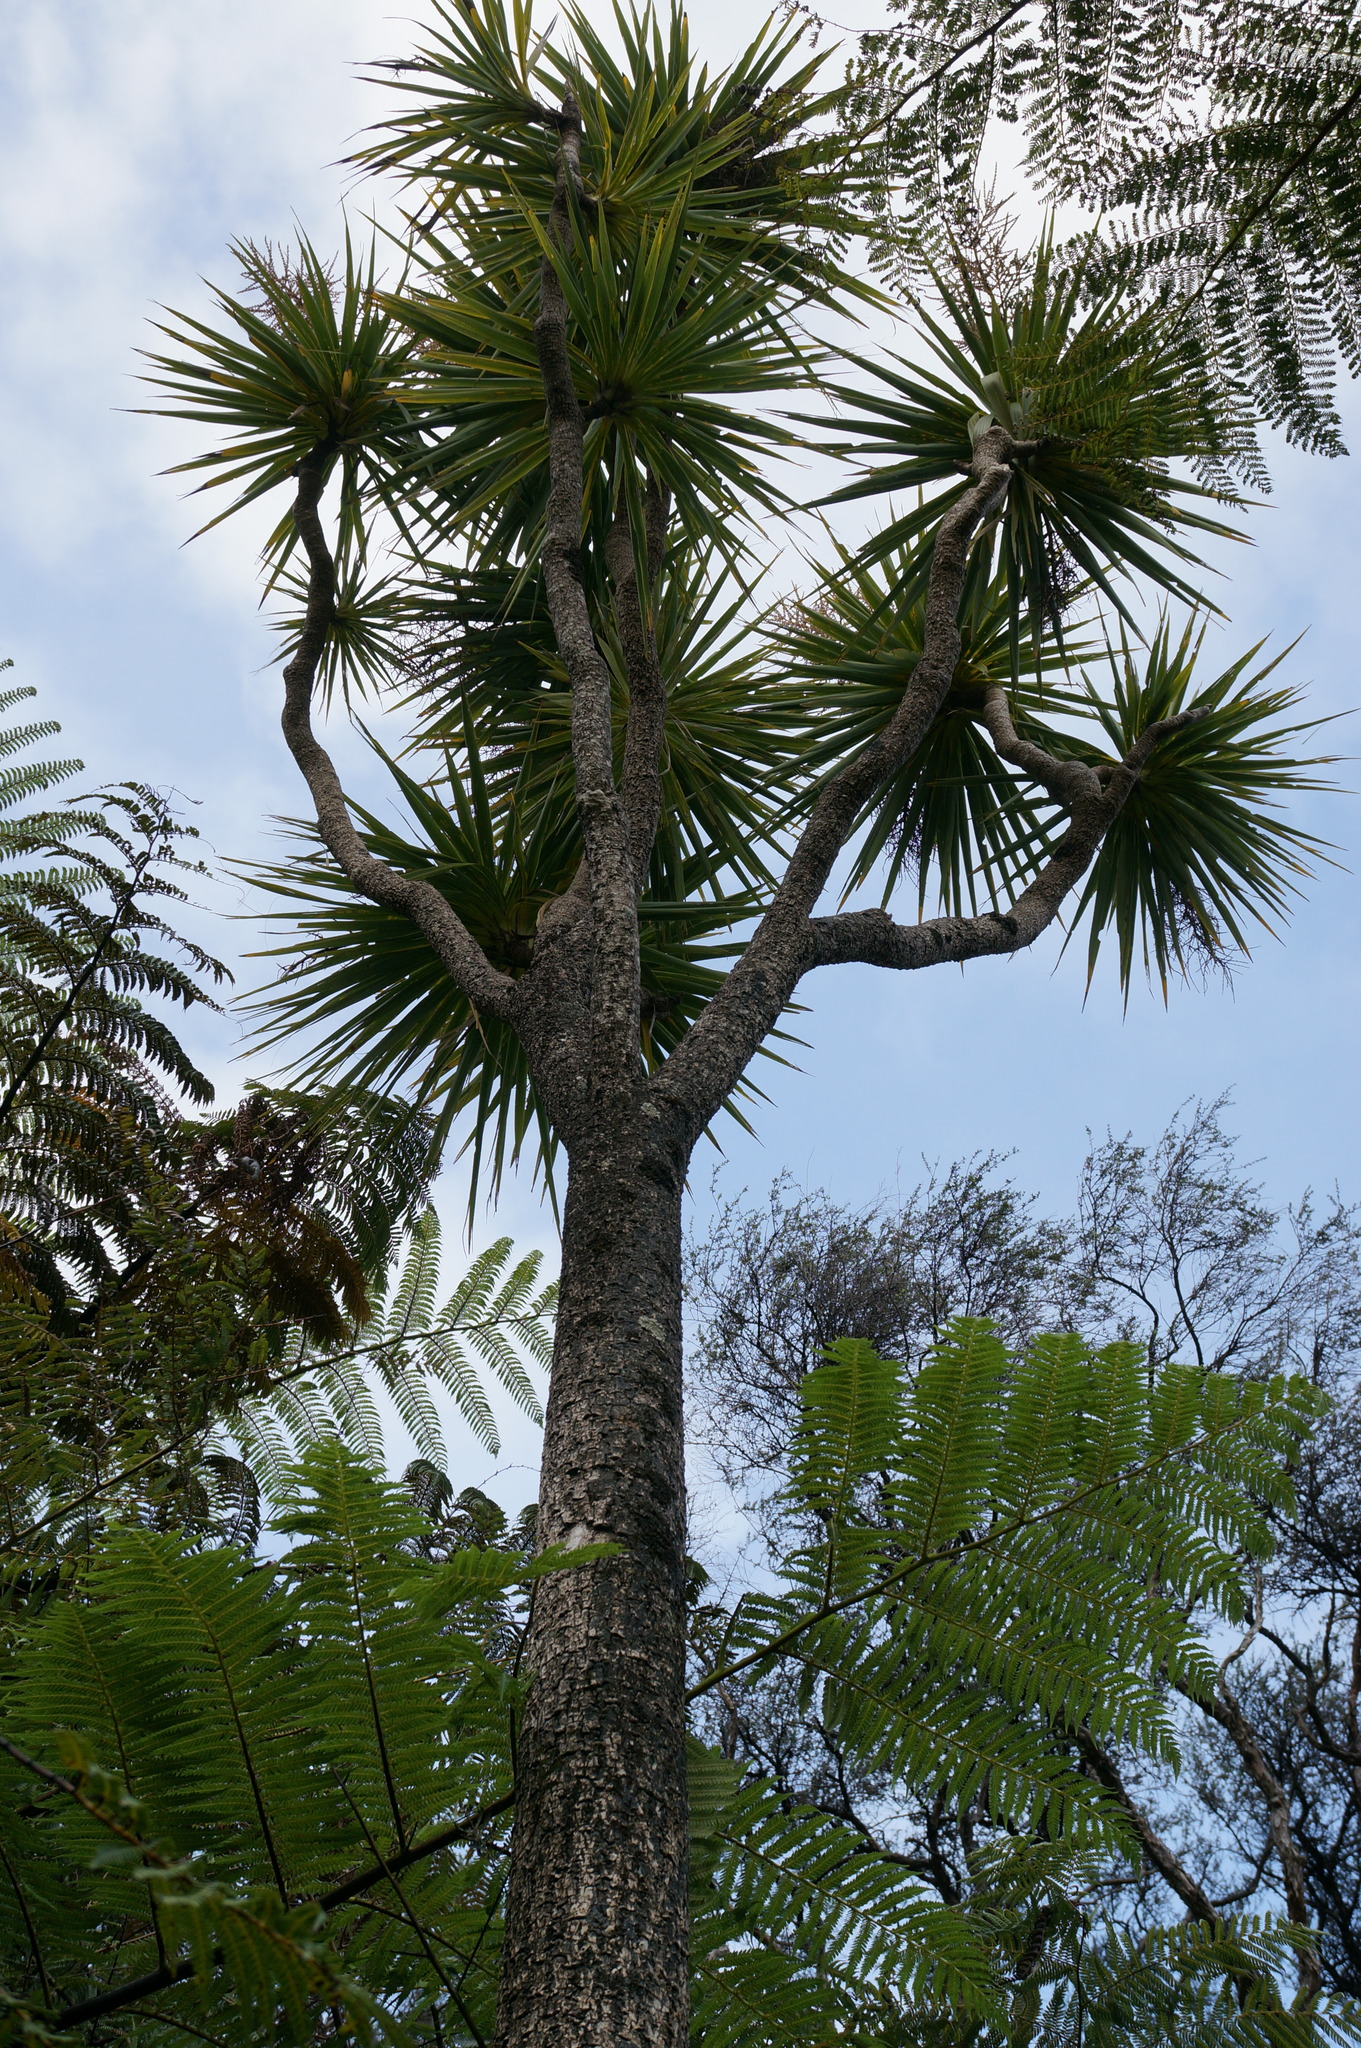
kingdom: Plantae
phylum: Tracheophyta
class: Liliopsida
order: Asparagales
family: Asparagaceae
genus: Cordyline
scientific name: Cordyline australis
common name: Cabbage-palm
